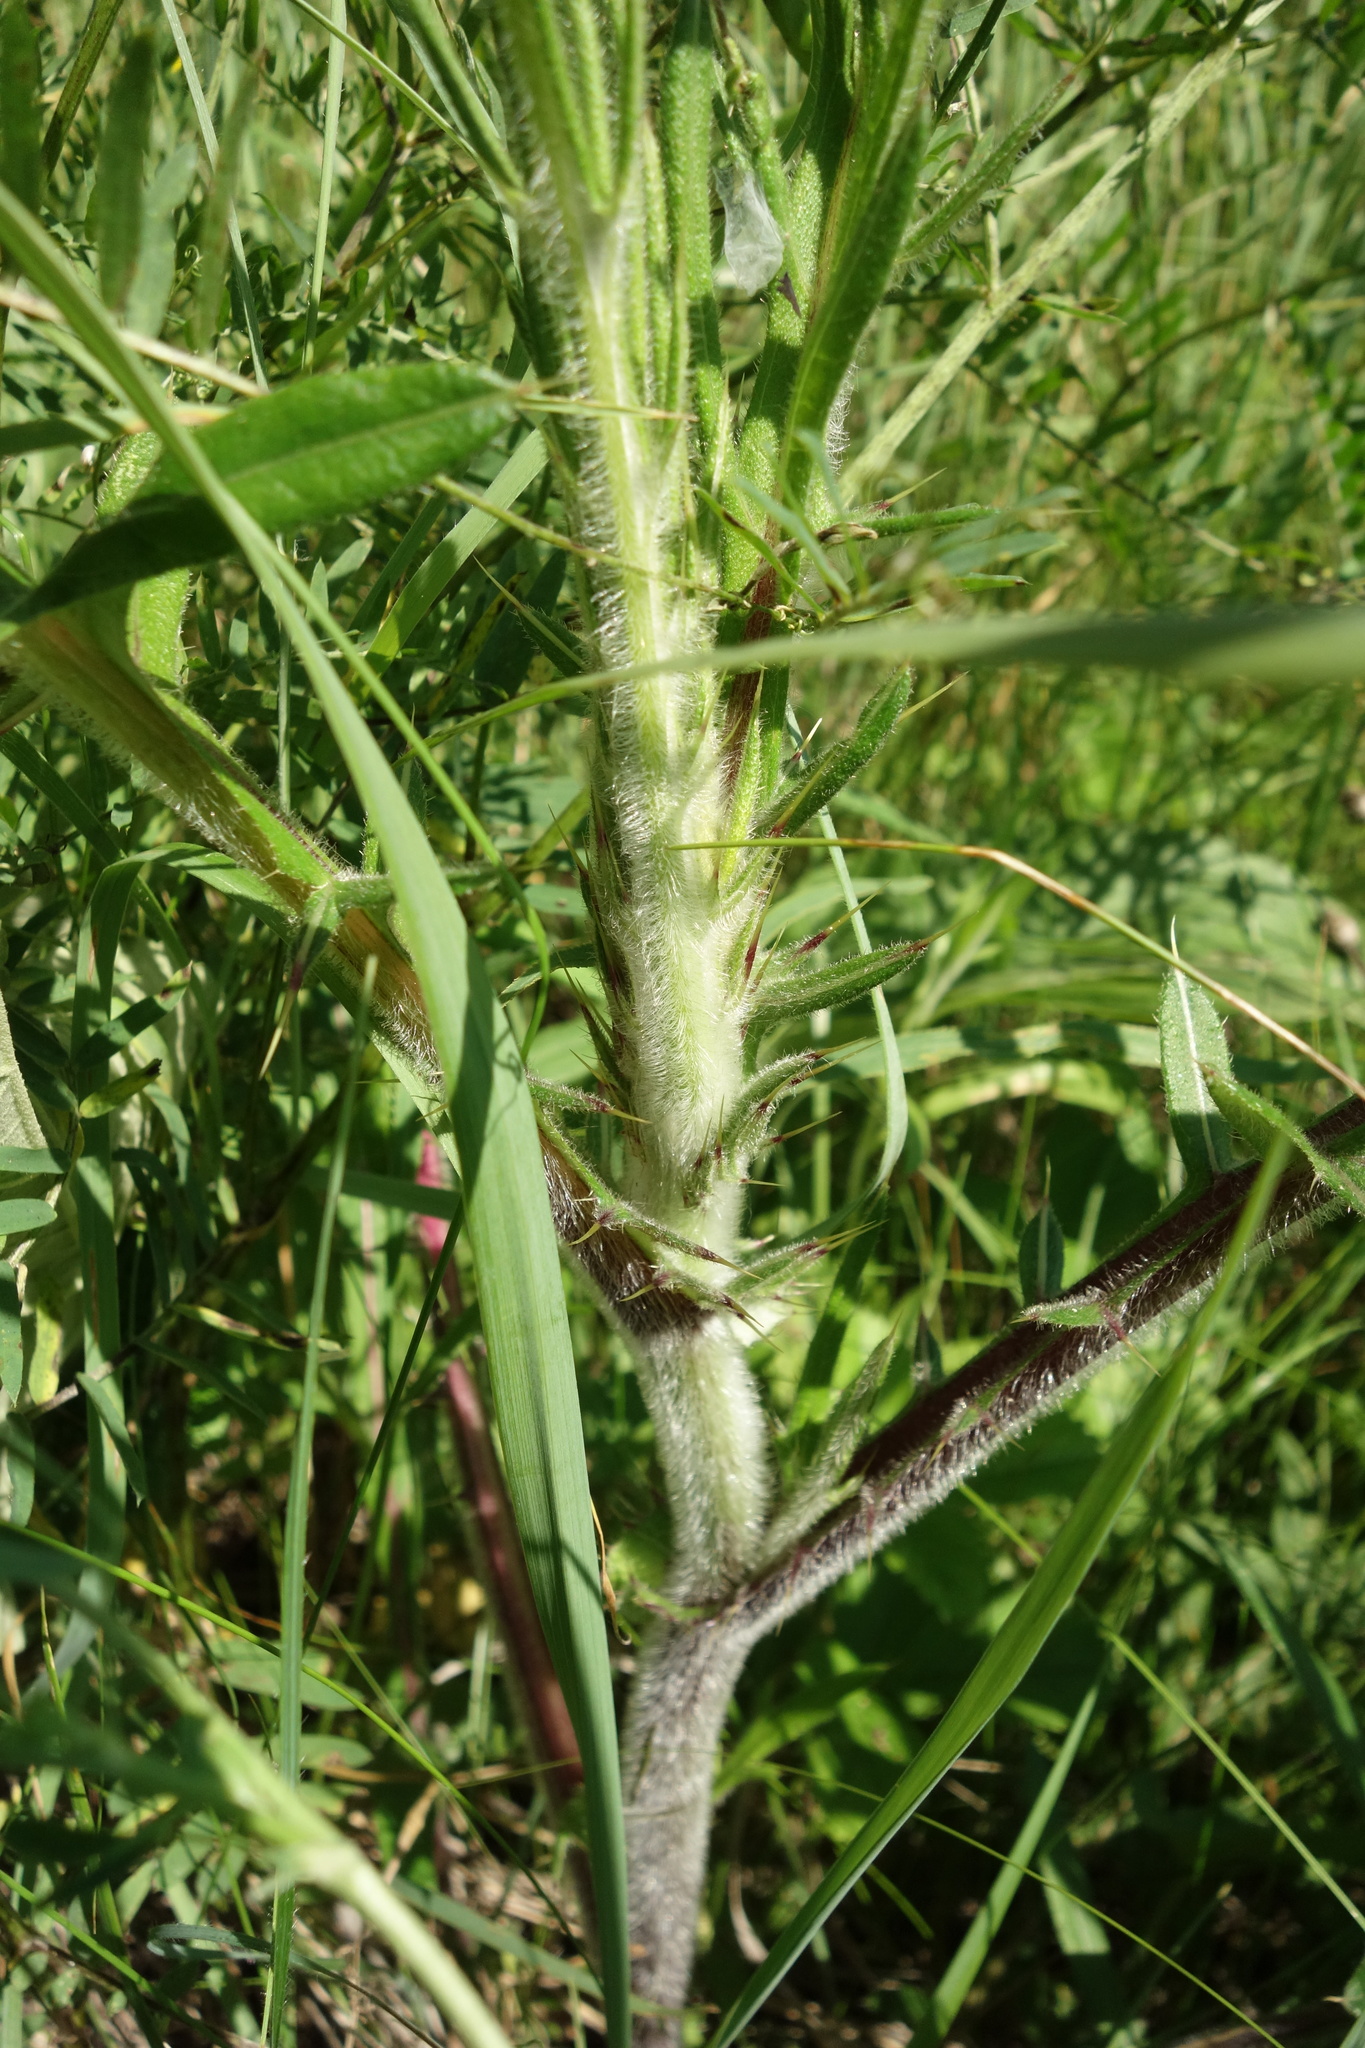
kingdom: Plantae
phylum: Tracheophyta
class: Magnoliopsida
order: Asterales
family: Asteraceae
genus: Lophiolepis
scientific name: Lophiolepis decussata
